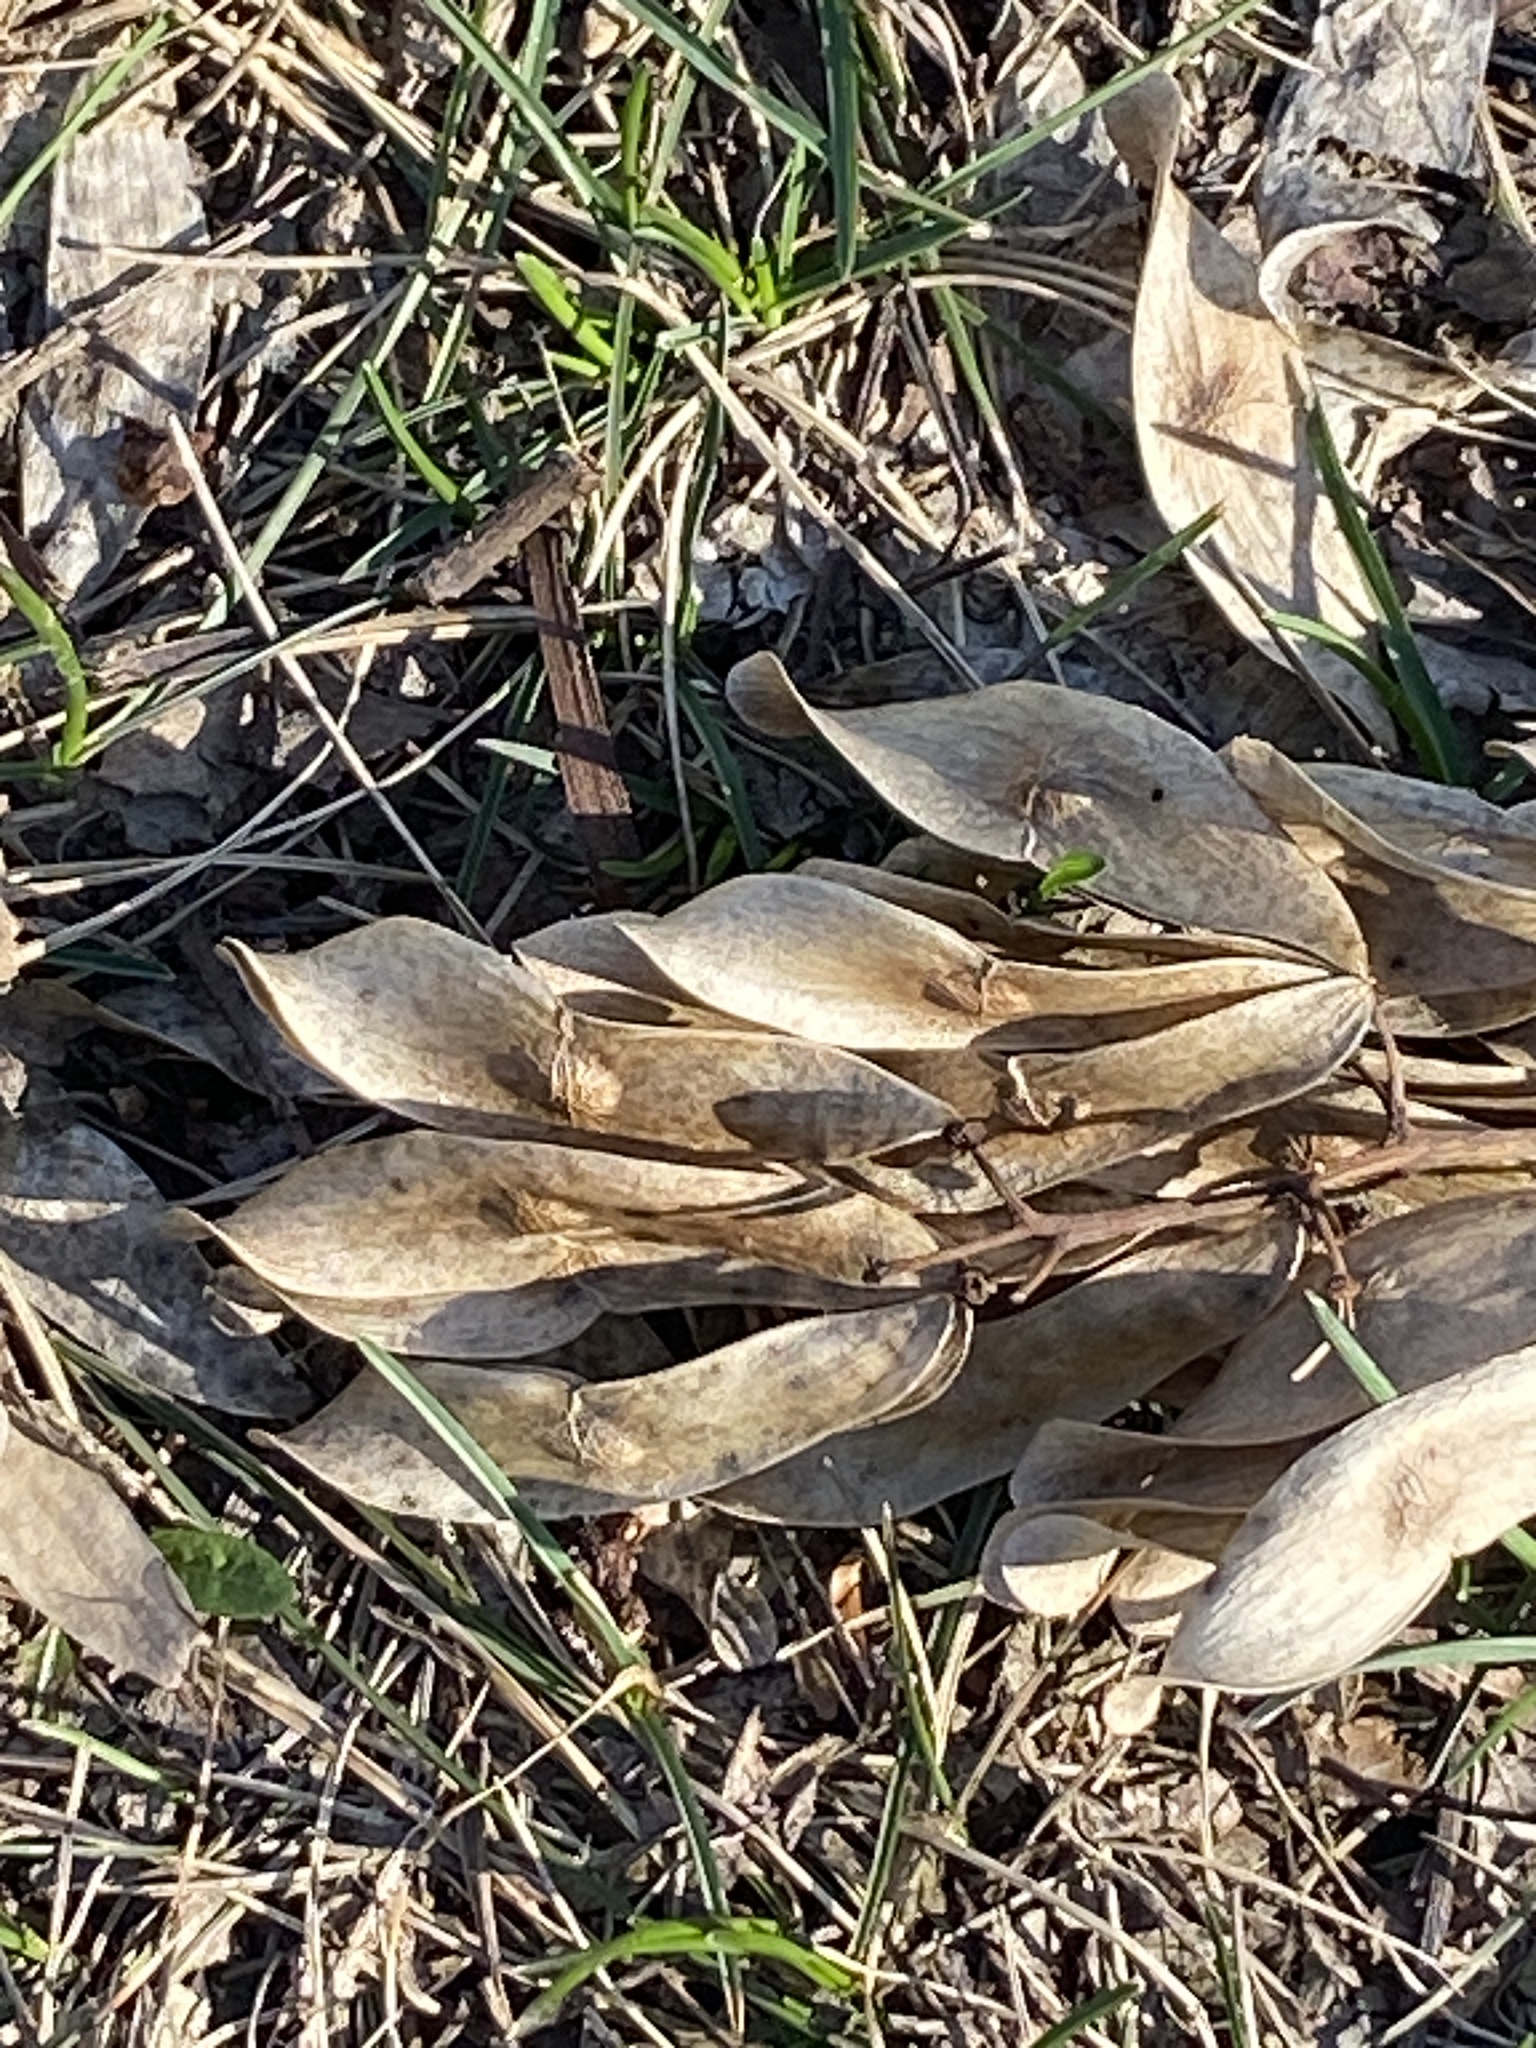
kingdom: Plantae
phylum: Tracheophyta
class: Magnoliopsida
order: Sapindales
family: Simaroubaceae
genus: Ailanthus
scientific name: Ailanthus altissima
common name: Tree-of-heaven
